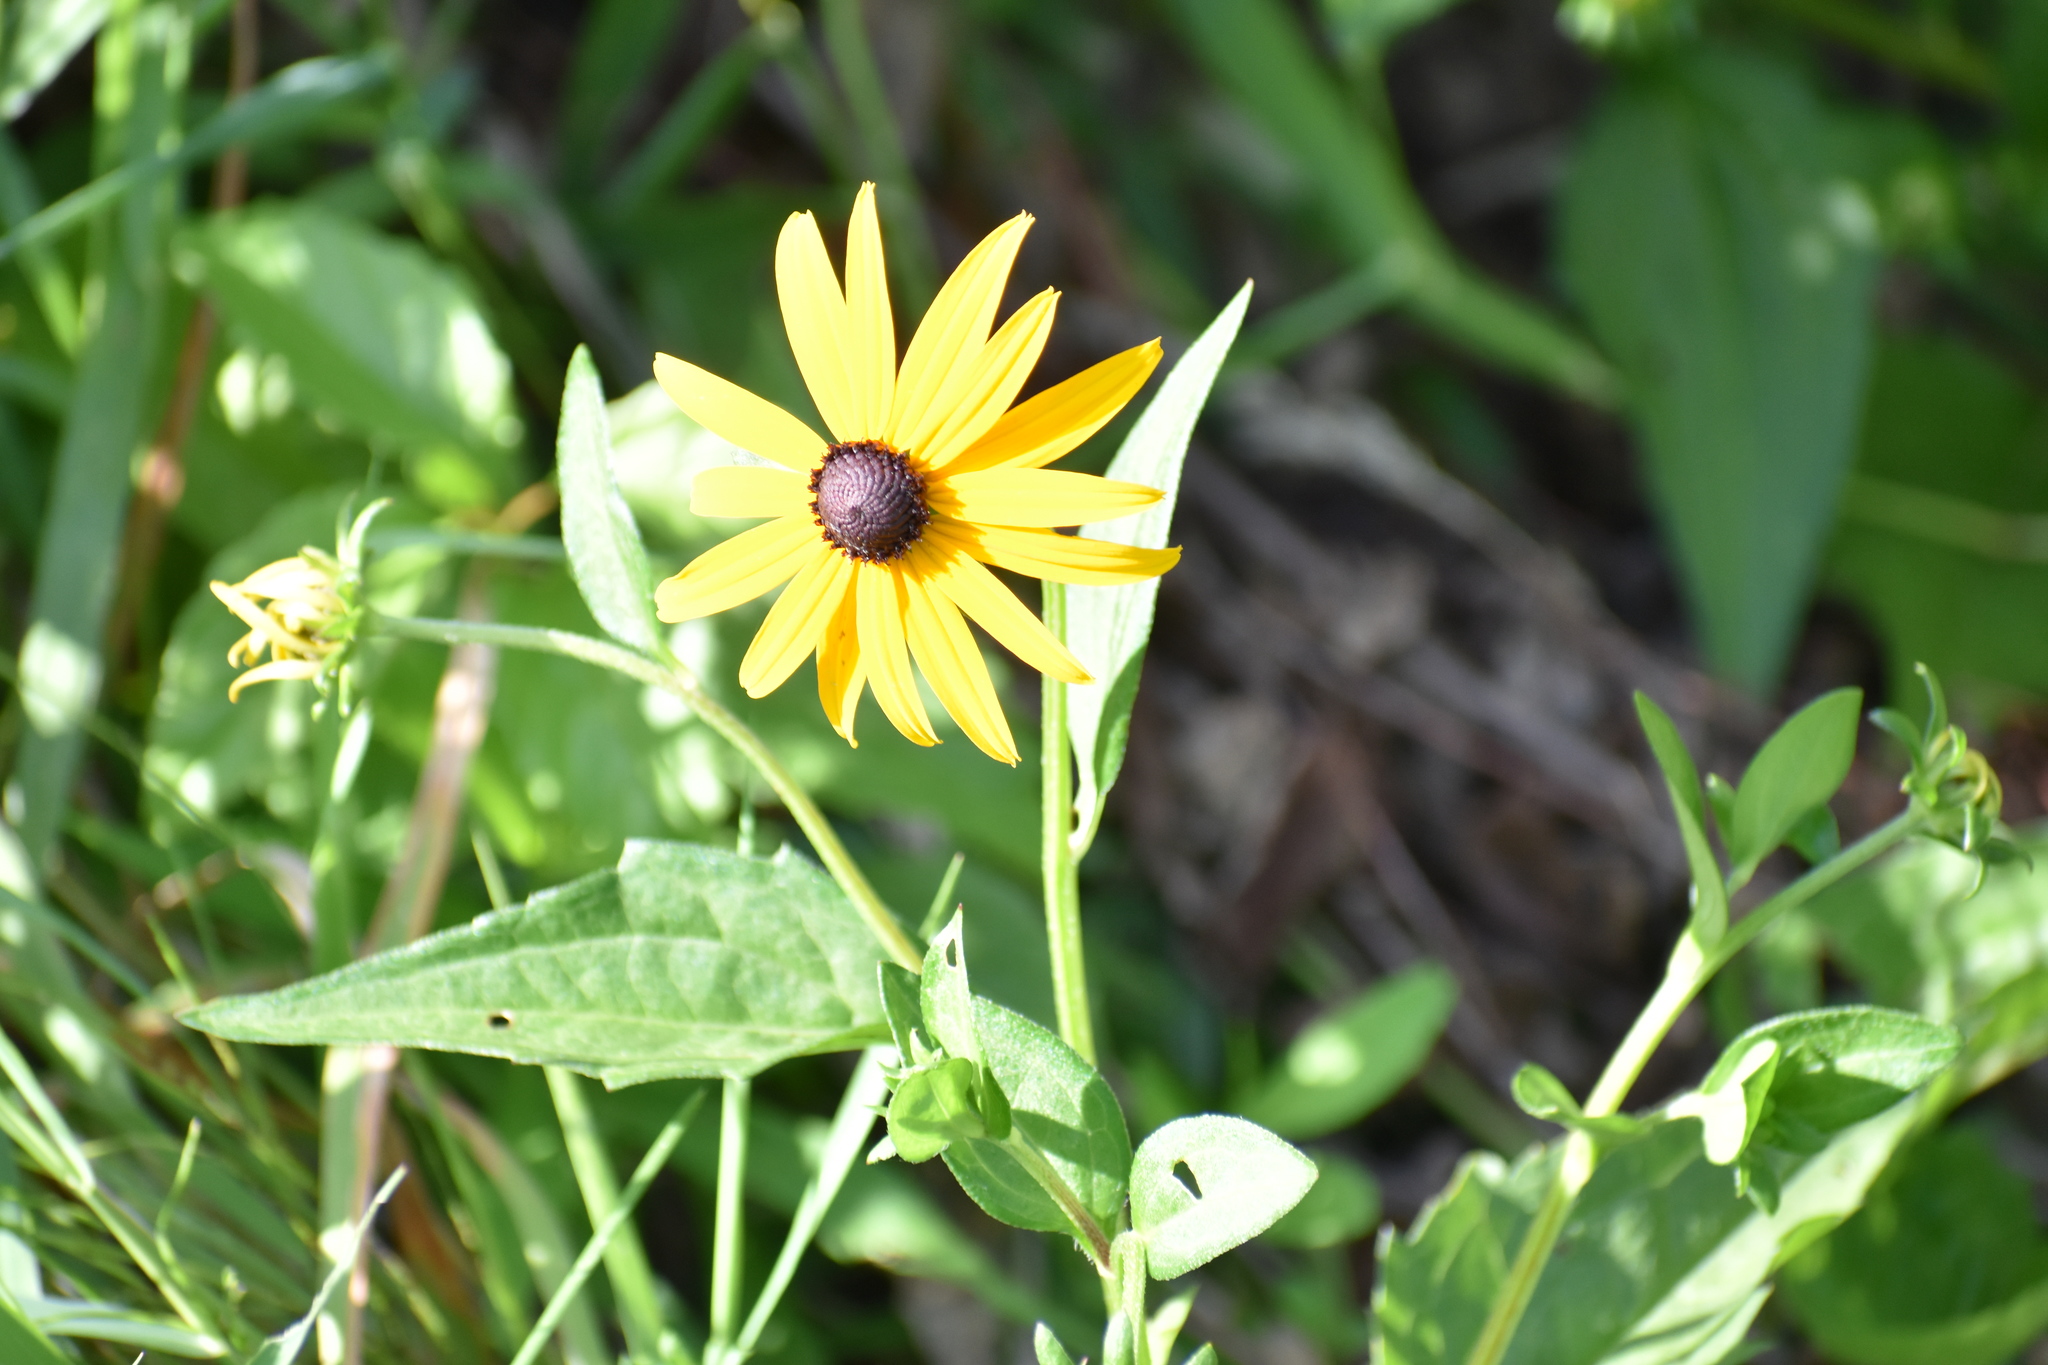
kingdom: Plantae
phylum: Tracheophyta
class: Magnoliopsida
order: Asterales
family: Asteraceae
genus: Rudbeckia
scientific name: Rudbeckia hirta
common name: Black-eyed-susan
